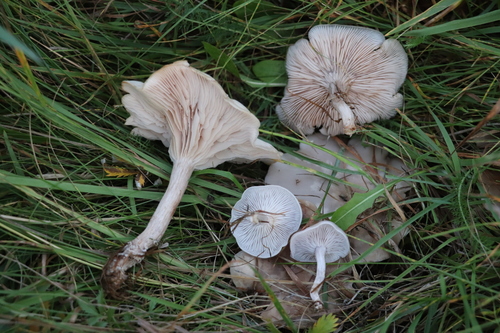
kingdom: Fungi
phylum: Basidiomycota
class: Agaricomycetes
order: Agaricales
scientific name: Agaricales
